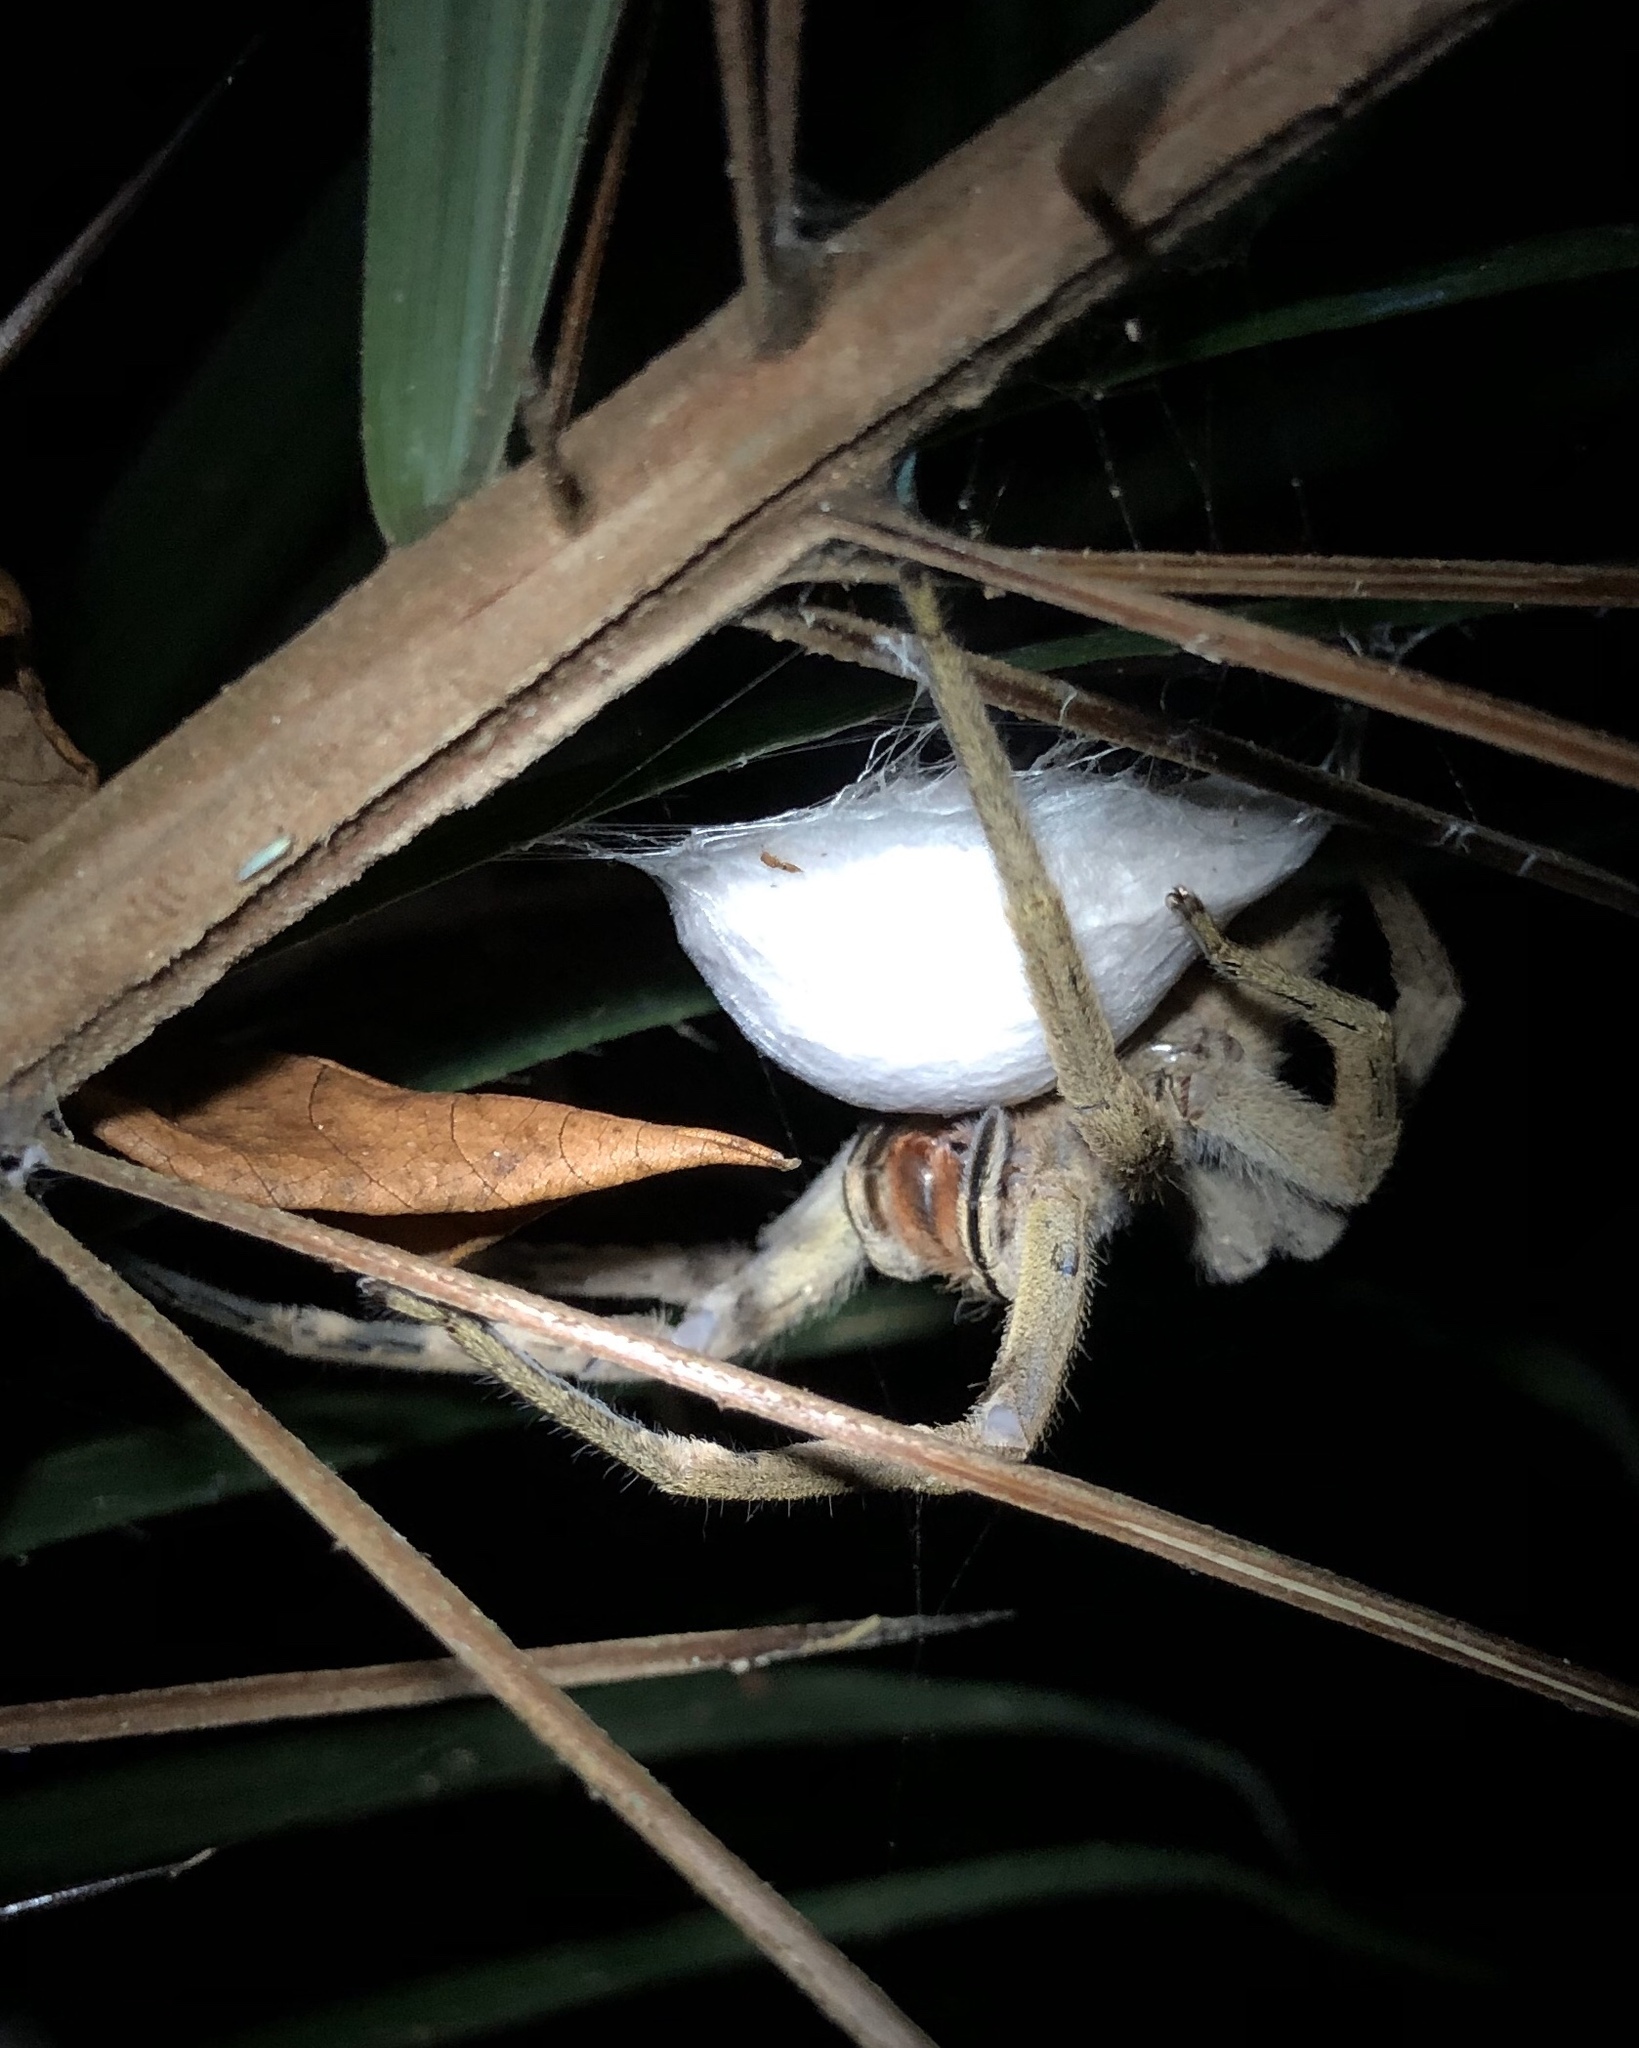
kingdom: Animalia
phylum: Arthropoda
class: Arachnida
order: Araneae
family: Ctenidae
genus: Phoneutria
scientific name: Phoneutria depilata
